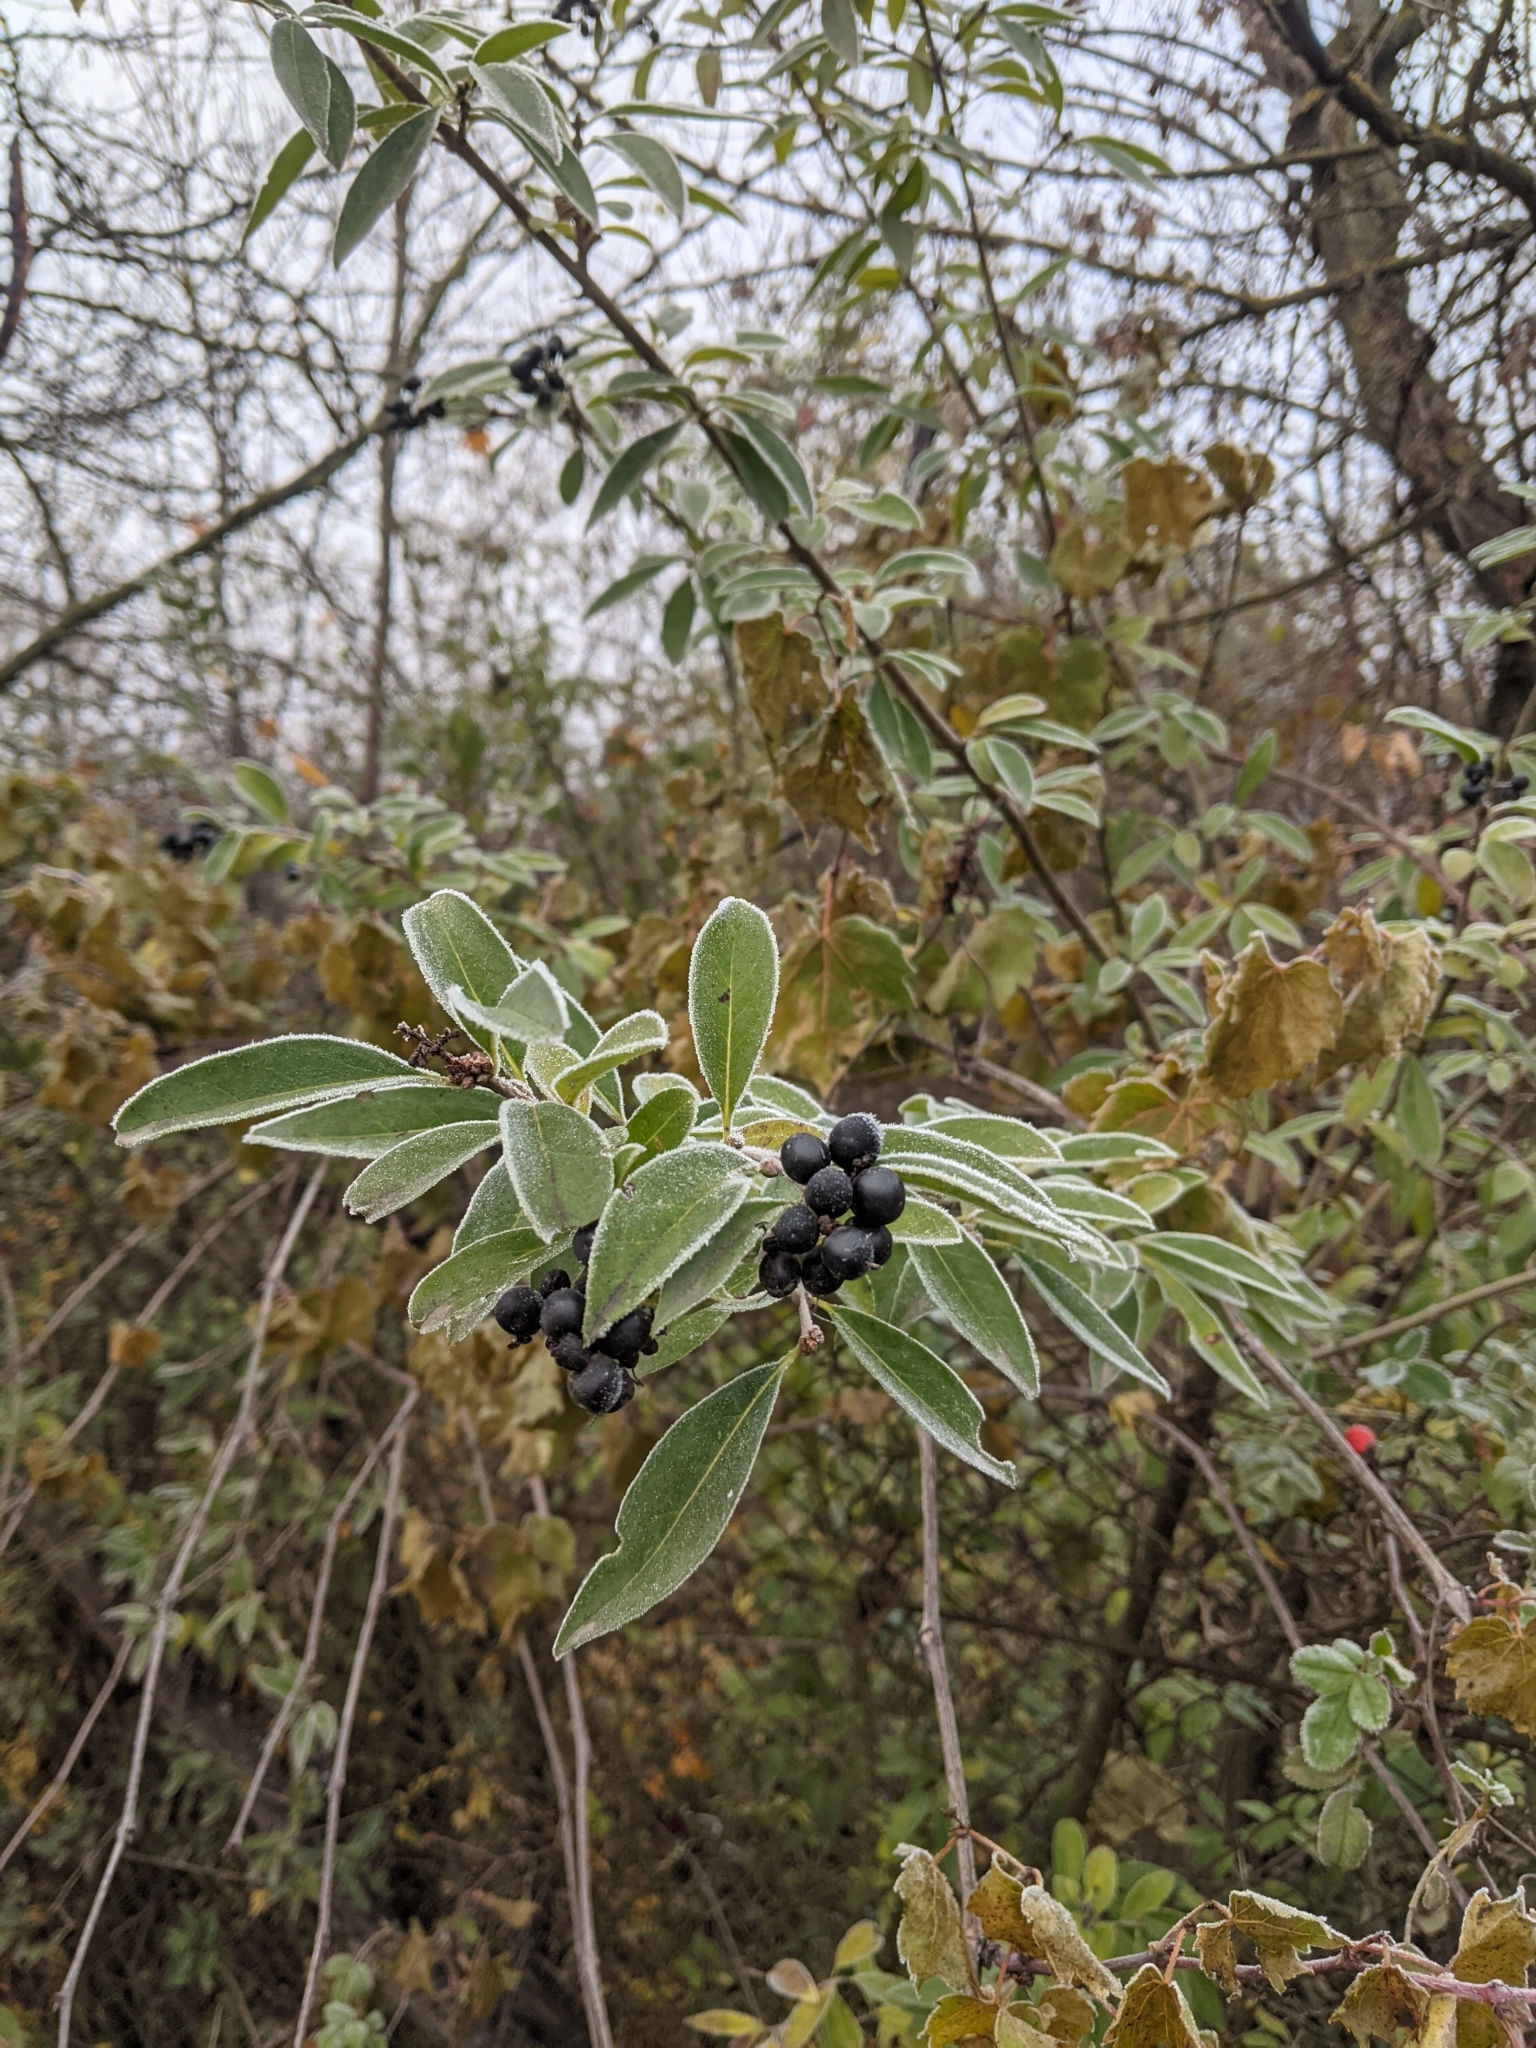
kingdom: Plantae
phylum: Tracheophyta
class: Magnoliopsida
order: Lamiales
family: Oleaceae
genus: Ligustrum
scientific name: Ligustrum vulgare
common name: Wild privet
